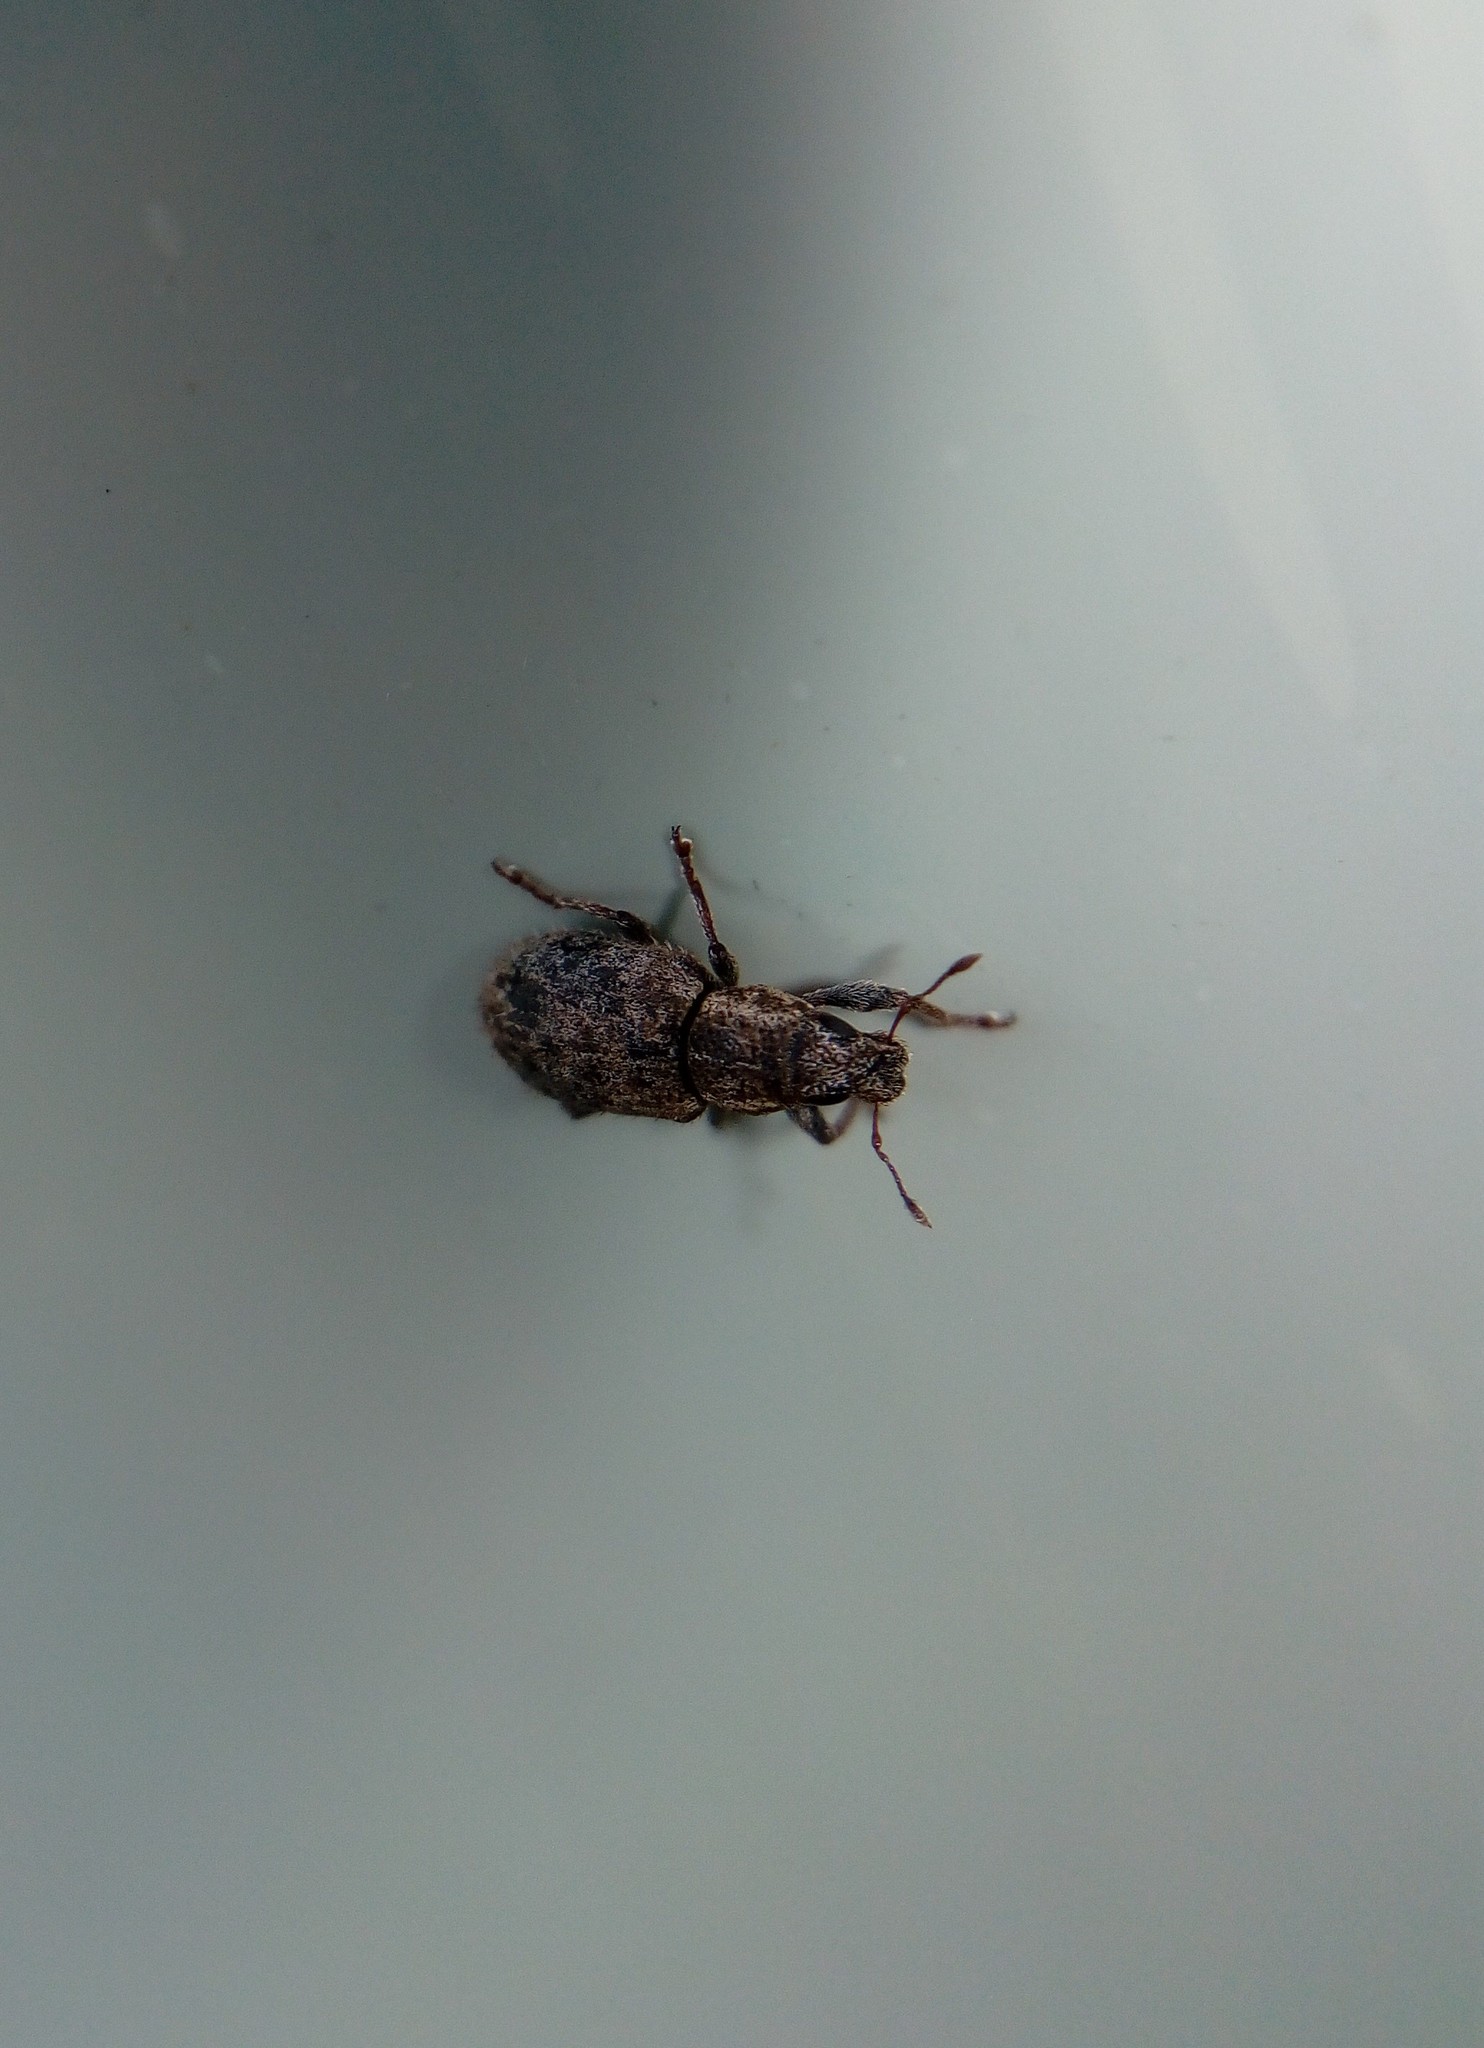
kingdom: Animalia
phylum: Arthropoda
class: Insecta
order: Coleoptera
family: Curculionidae
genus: Sitona
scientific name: Sitona hispidulus
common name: Clover weevil
